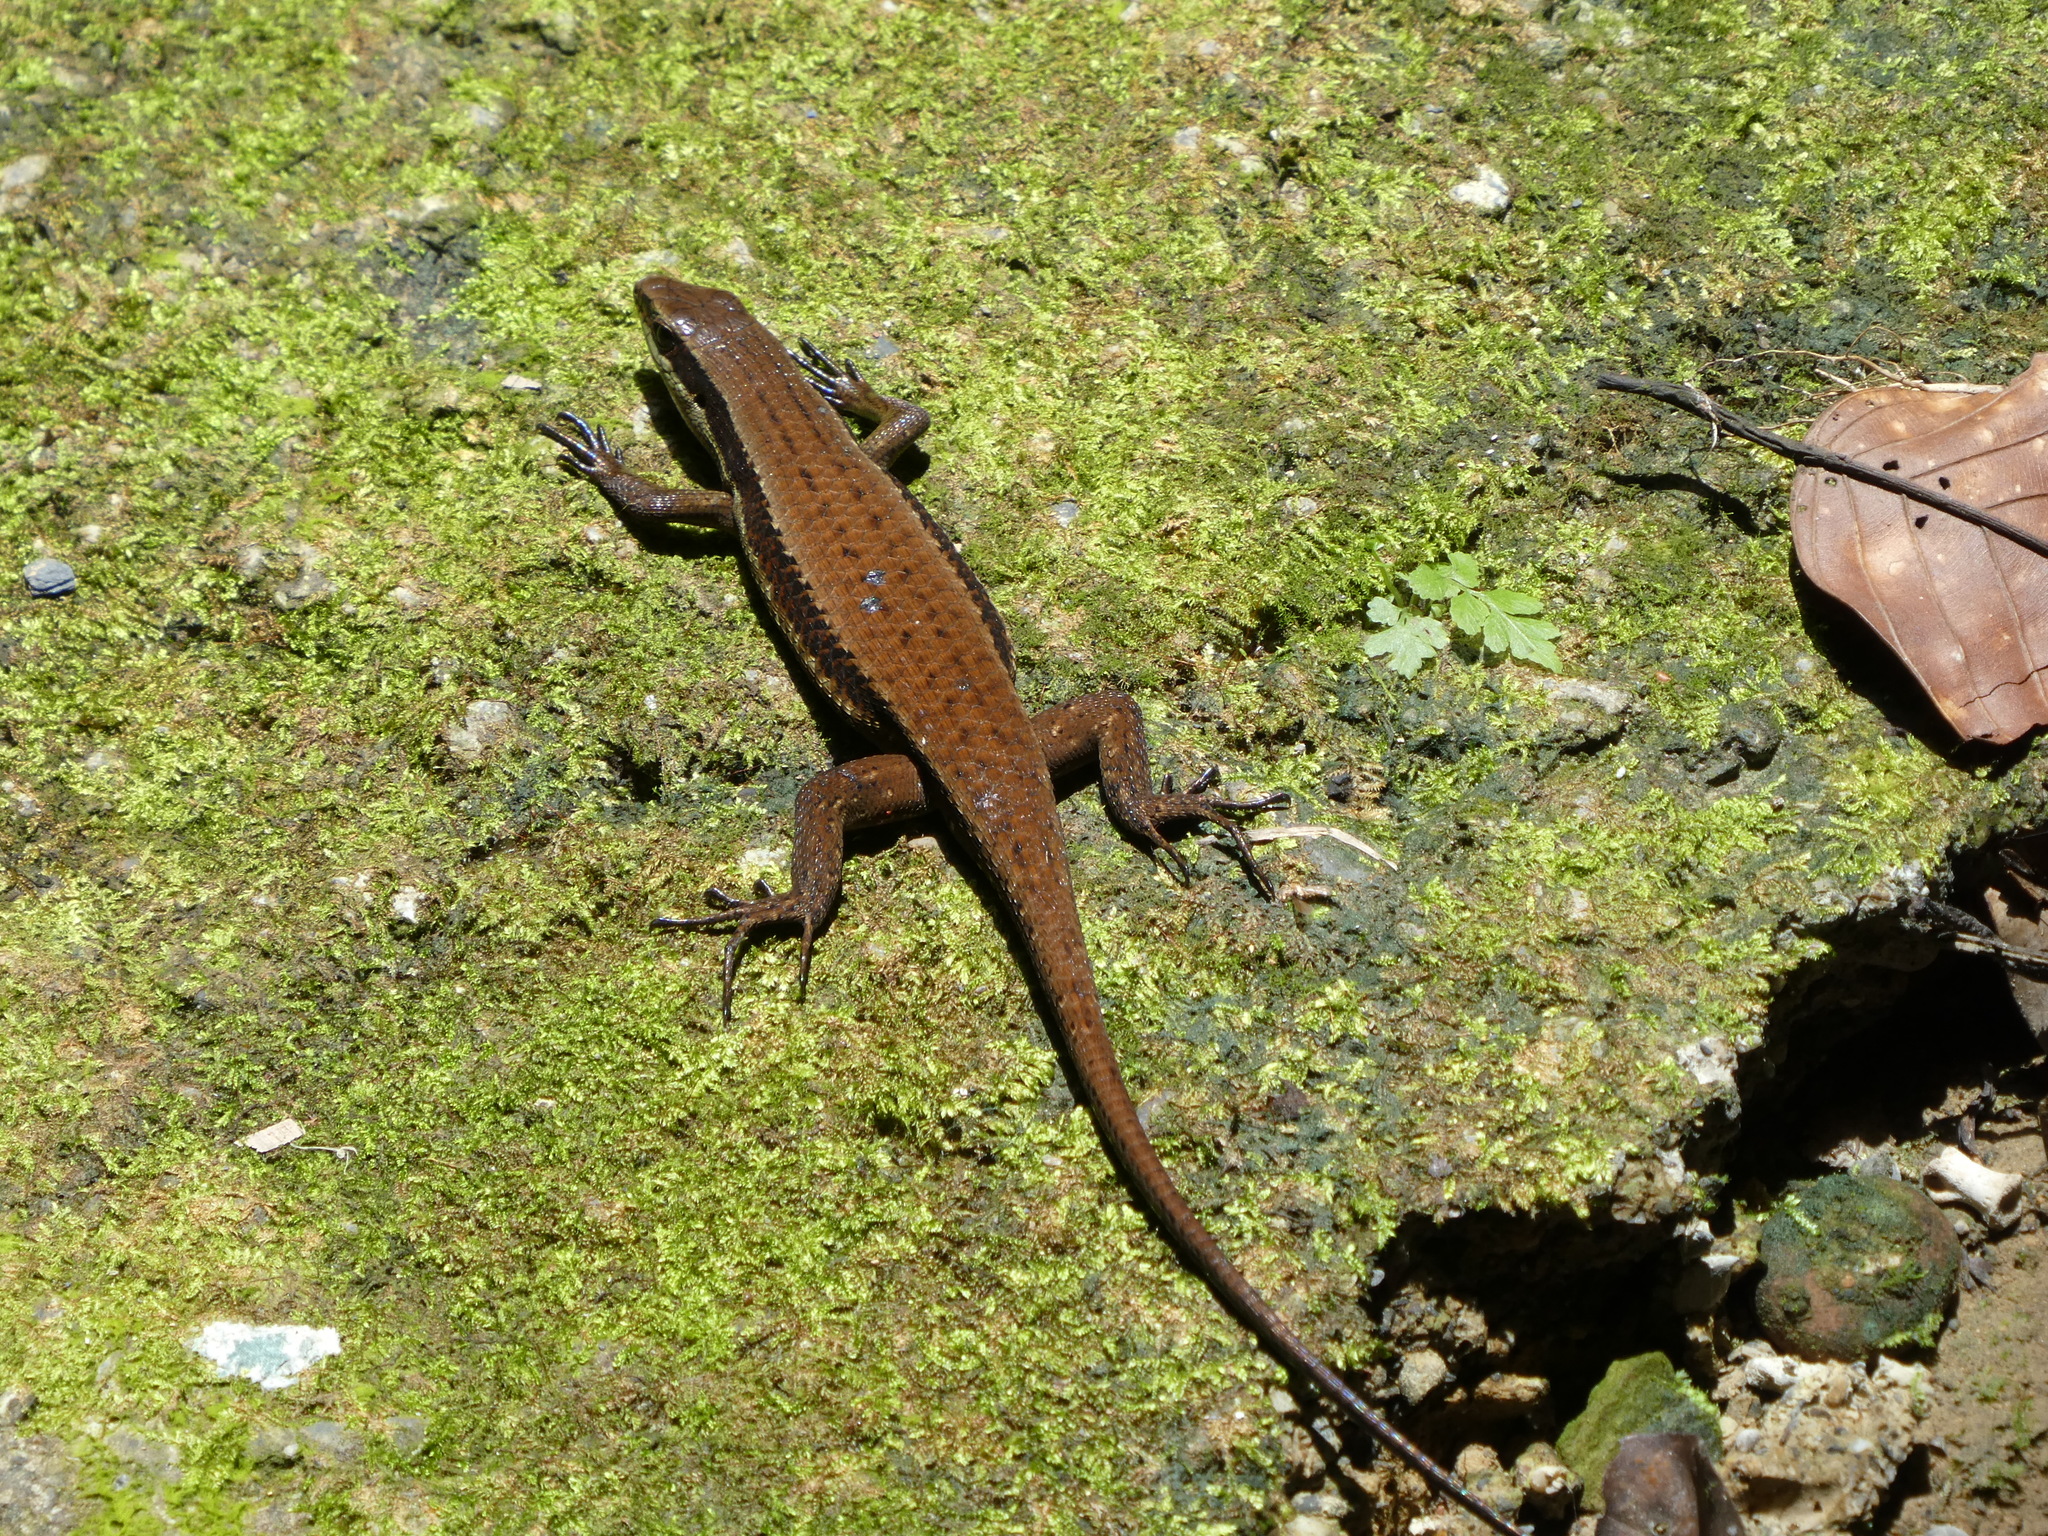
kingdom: Animalia
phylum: Chordata
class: Squamata
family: Scincidae
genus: Eutropis
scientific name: Eutropis rudis
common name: Rough mabuya
